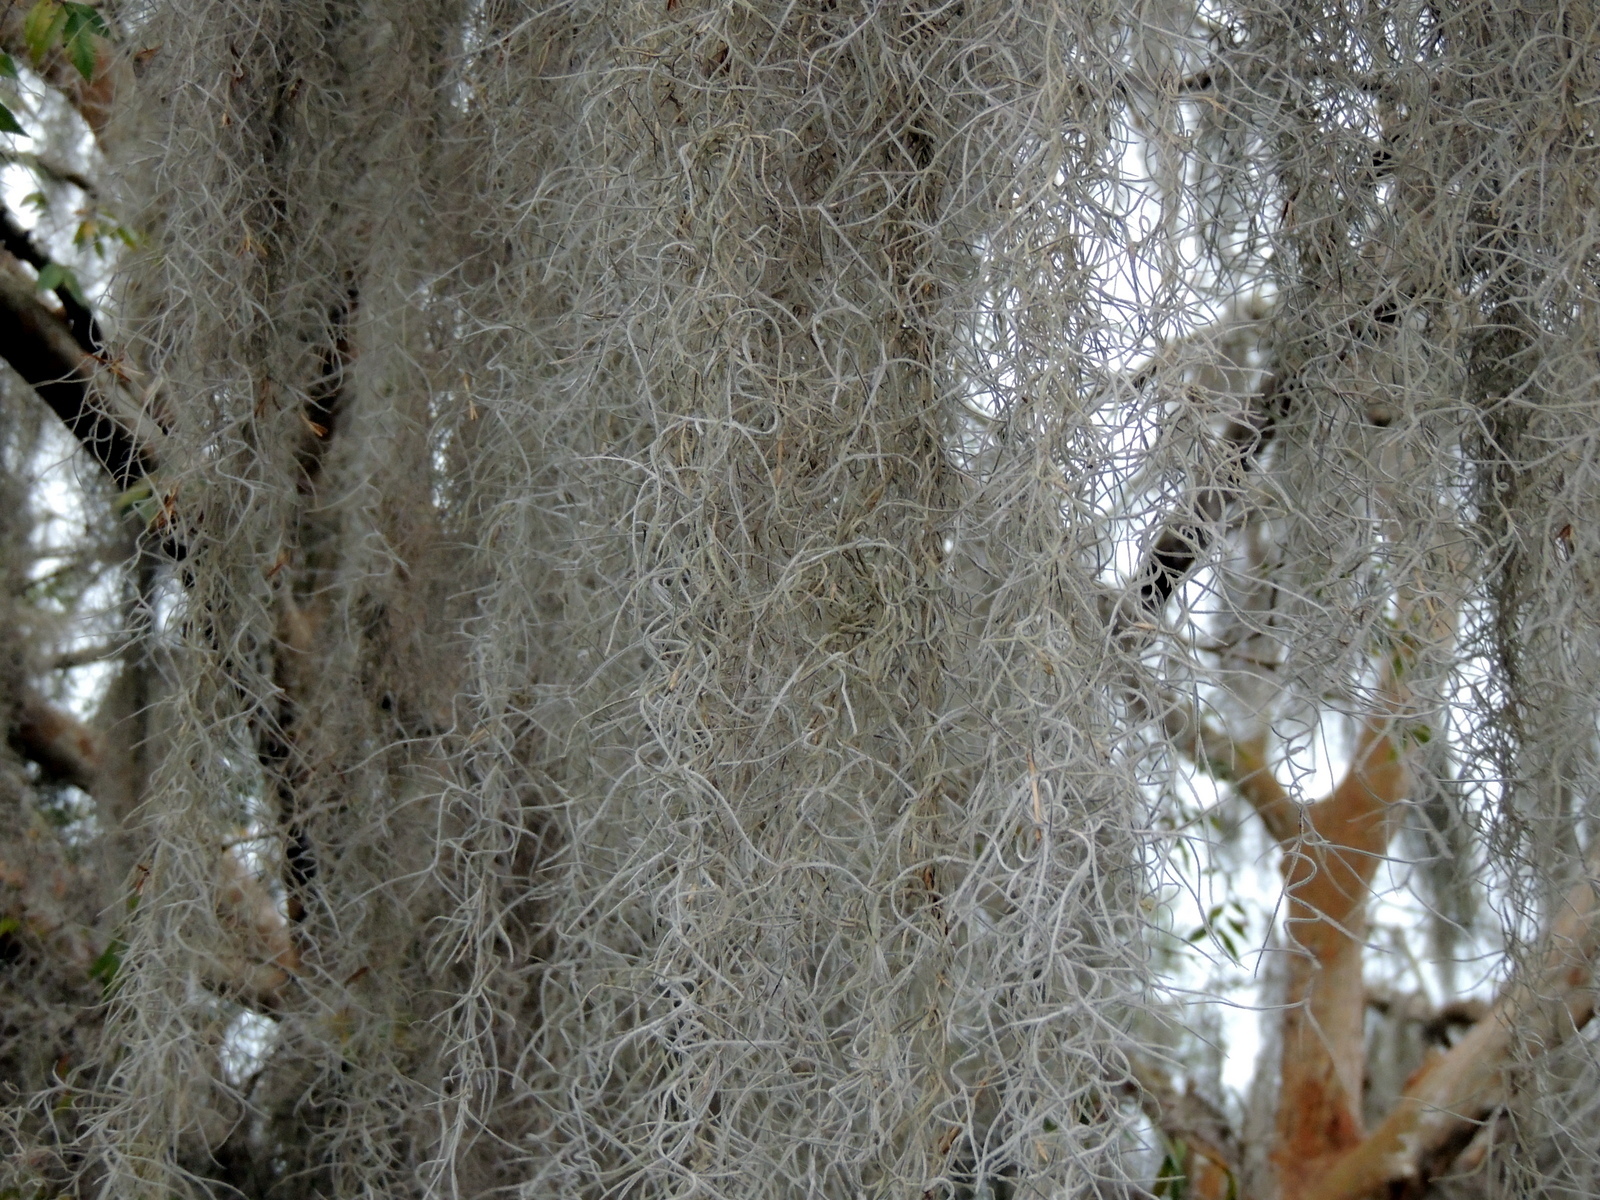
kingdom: Plantae
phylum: Tracheophyta
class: Liliopsida
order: Poales
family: Bromeliaceae
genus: Tillandsia
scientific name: Tillandsia usneoides
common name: Spanish moss
